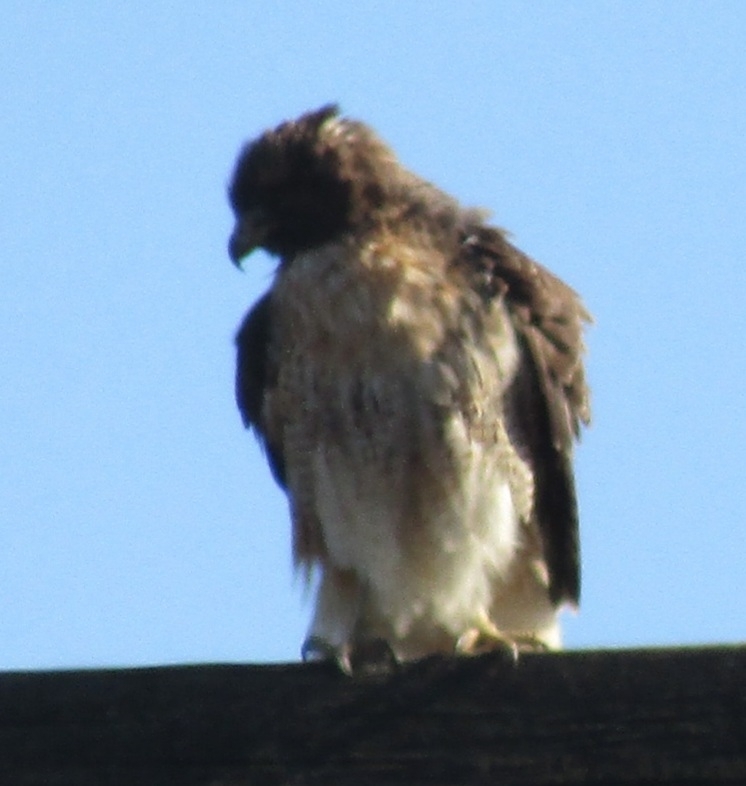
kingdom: Animalia
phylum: Chordata
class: Aves
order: Accipitriformes
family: Accipitridae
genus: Buteo
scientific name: Buteo jamaicensis
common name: Red-tailed hawk
